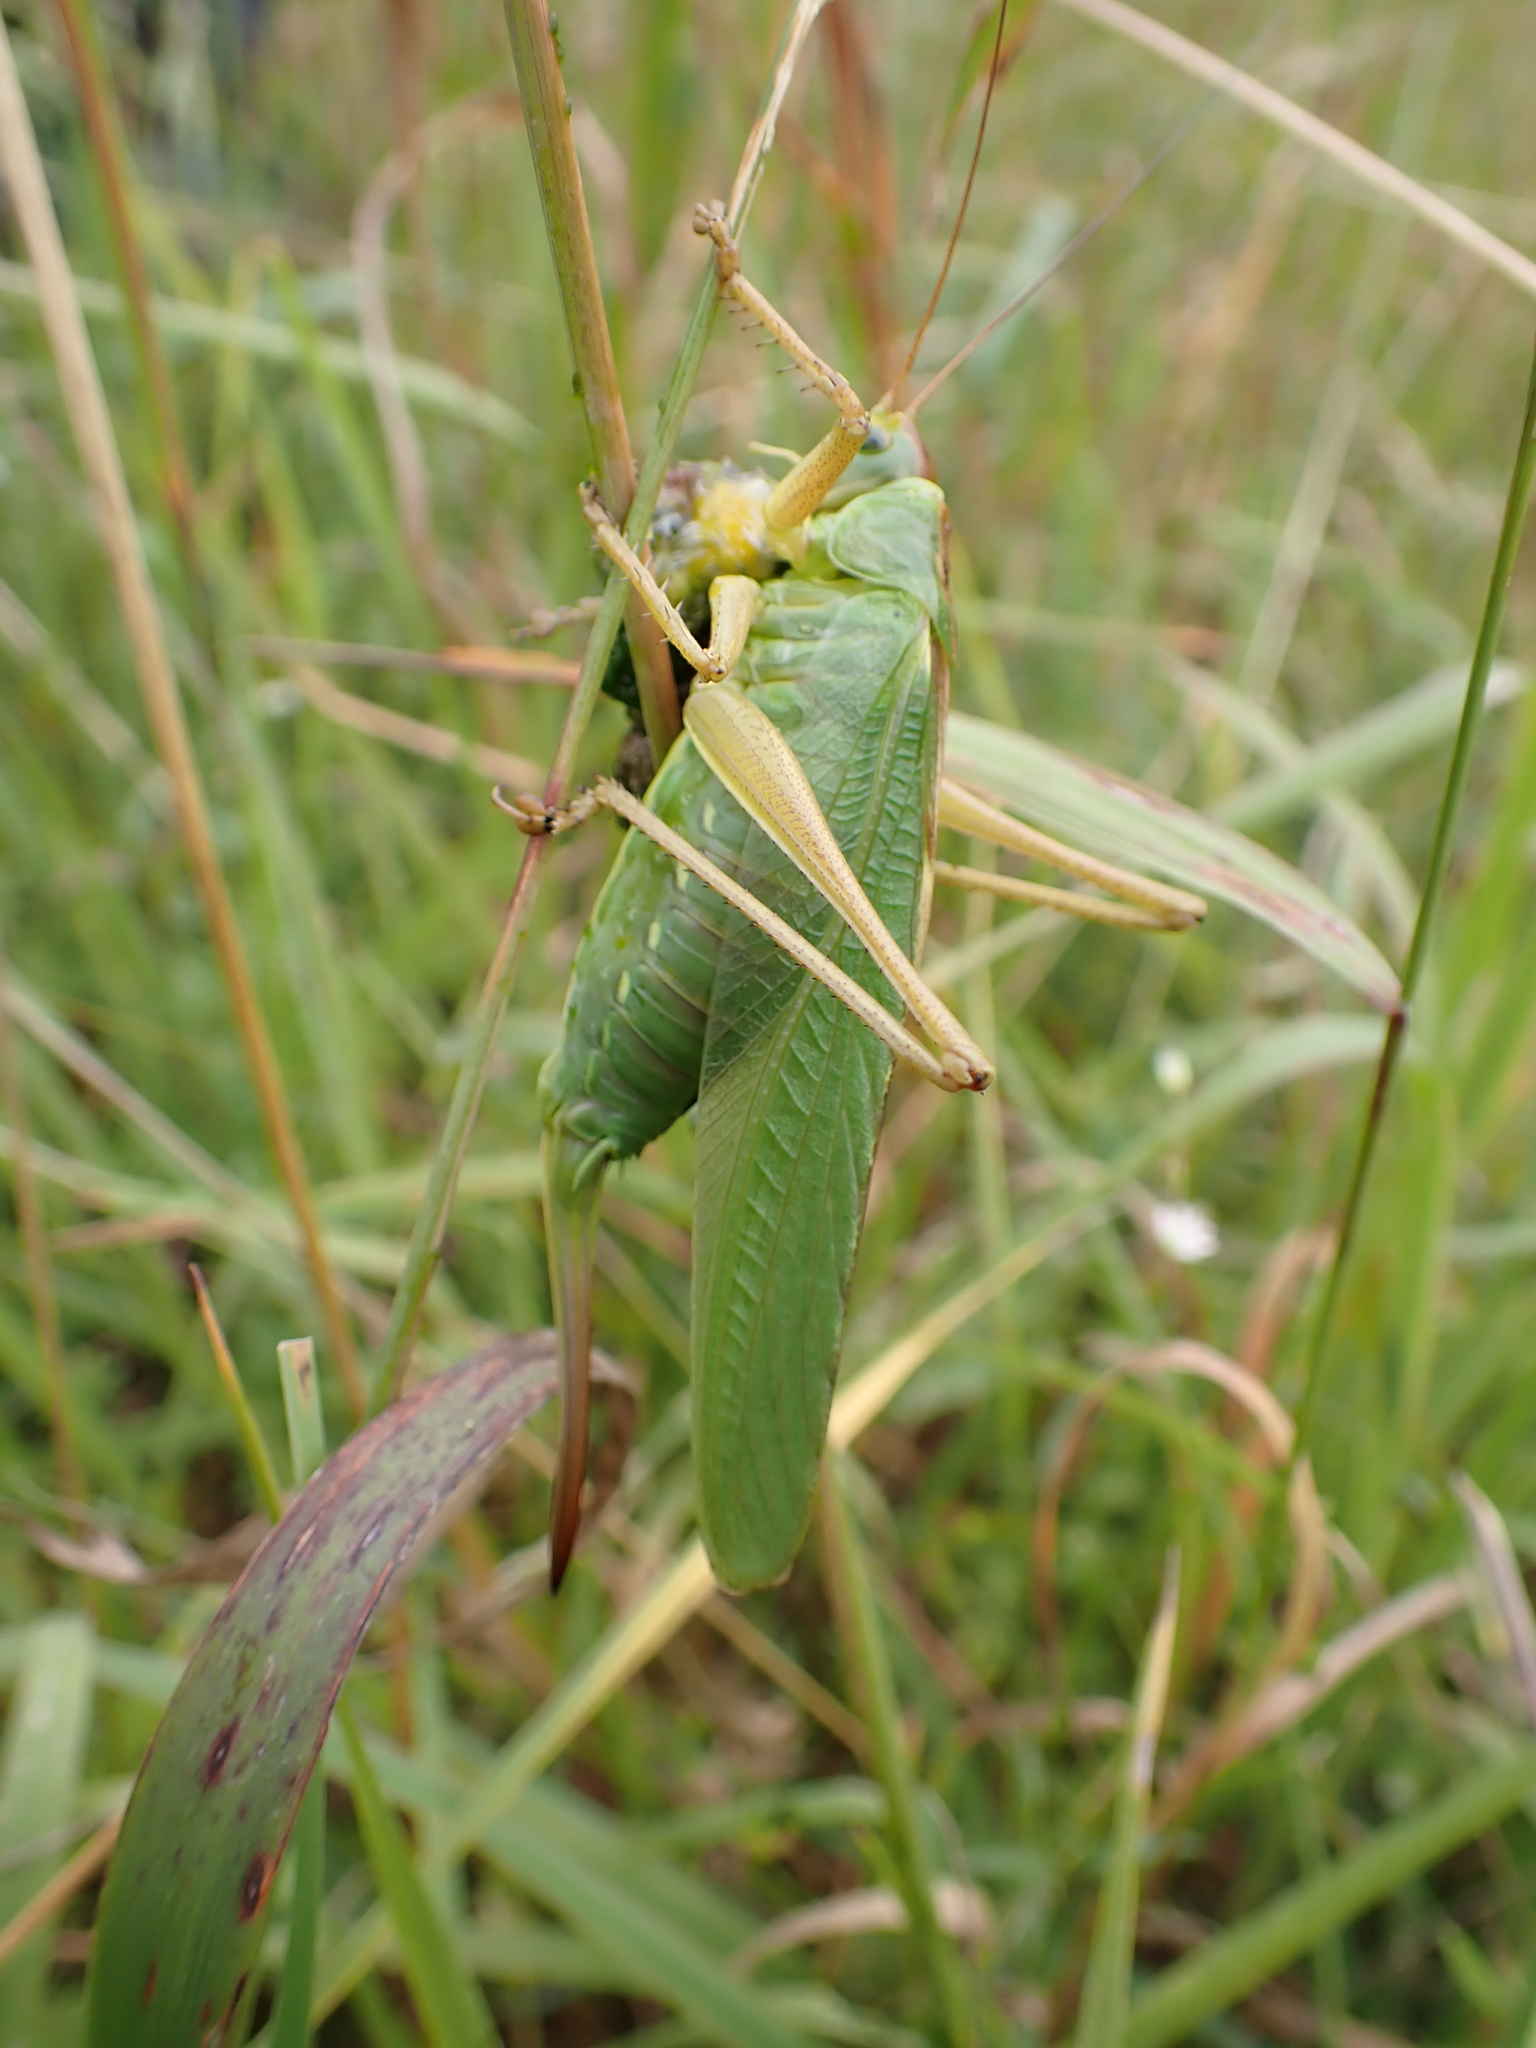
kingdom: Animalia
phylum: Arthropoda
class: Insecta
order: Orthoptera
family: Tettigoniidae
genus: Tettigonia
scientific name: Tettigonia viridissima
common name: Great green bush-cricket
